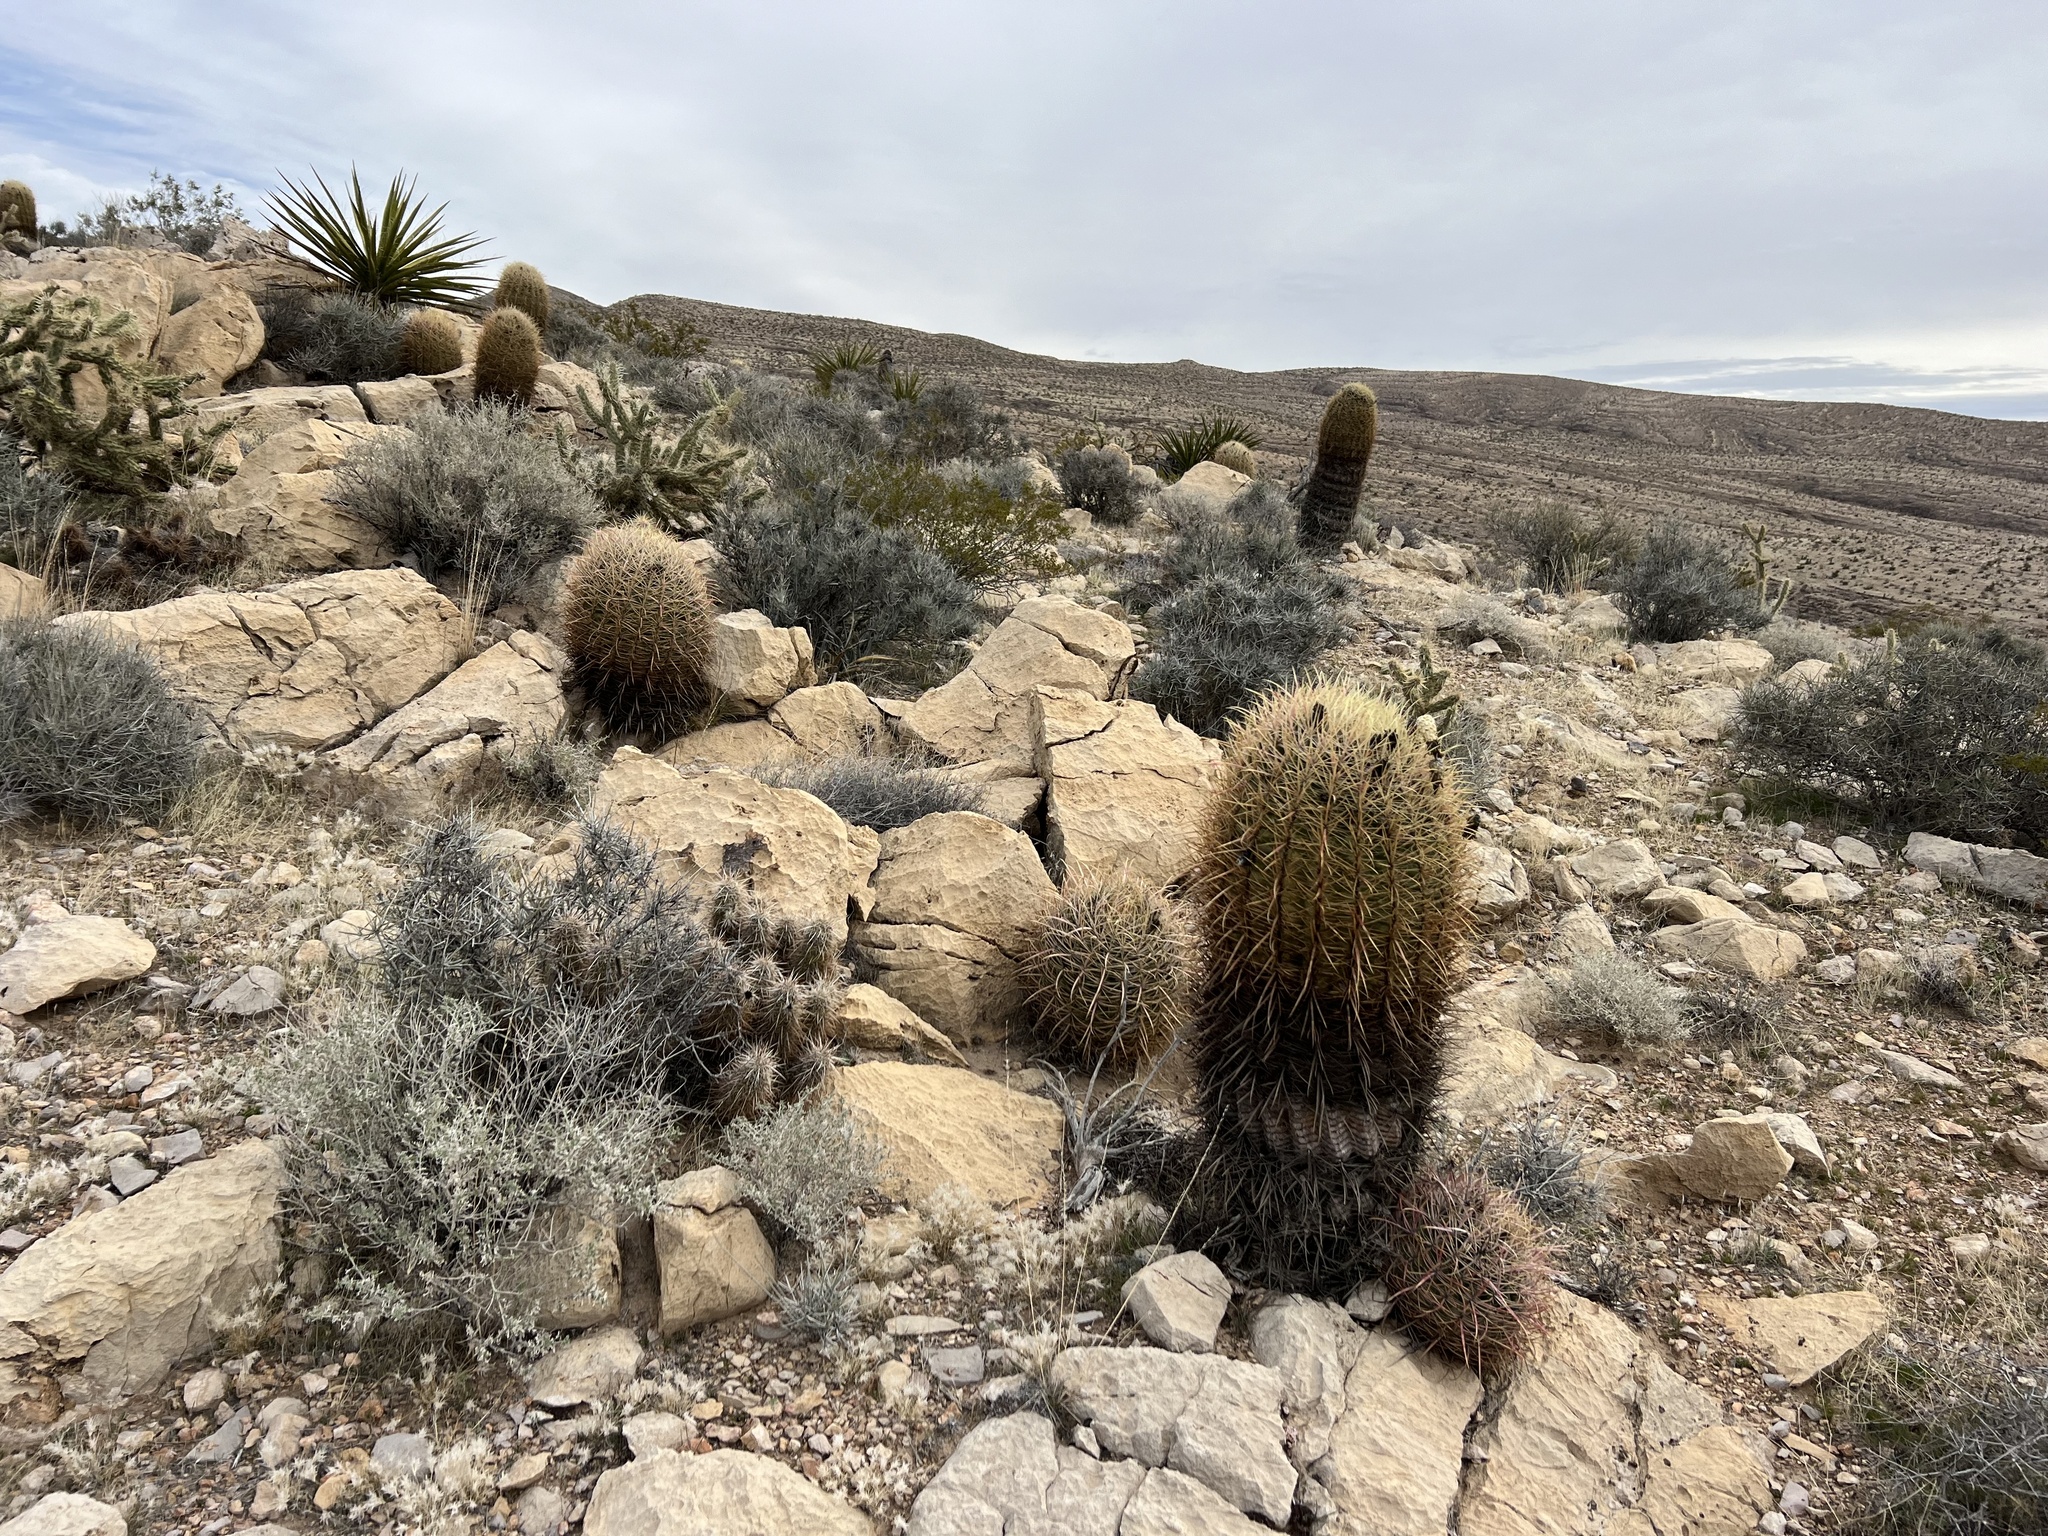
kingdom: Plantae
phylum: Tracheophyta
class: Magnoliopsida
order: Caryophyllales
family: Cactaceae
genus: Ferocactus
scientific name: Ferocactus cylindraceus
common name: California barrel cactus
